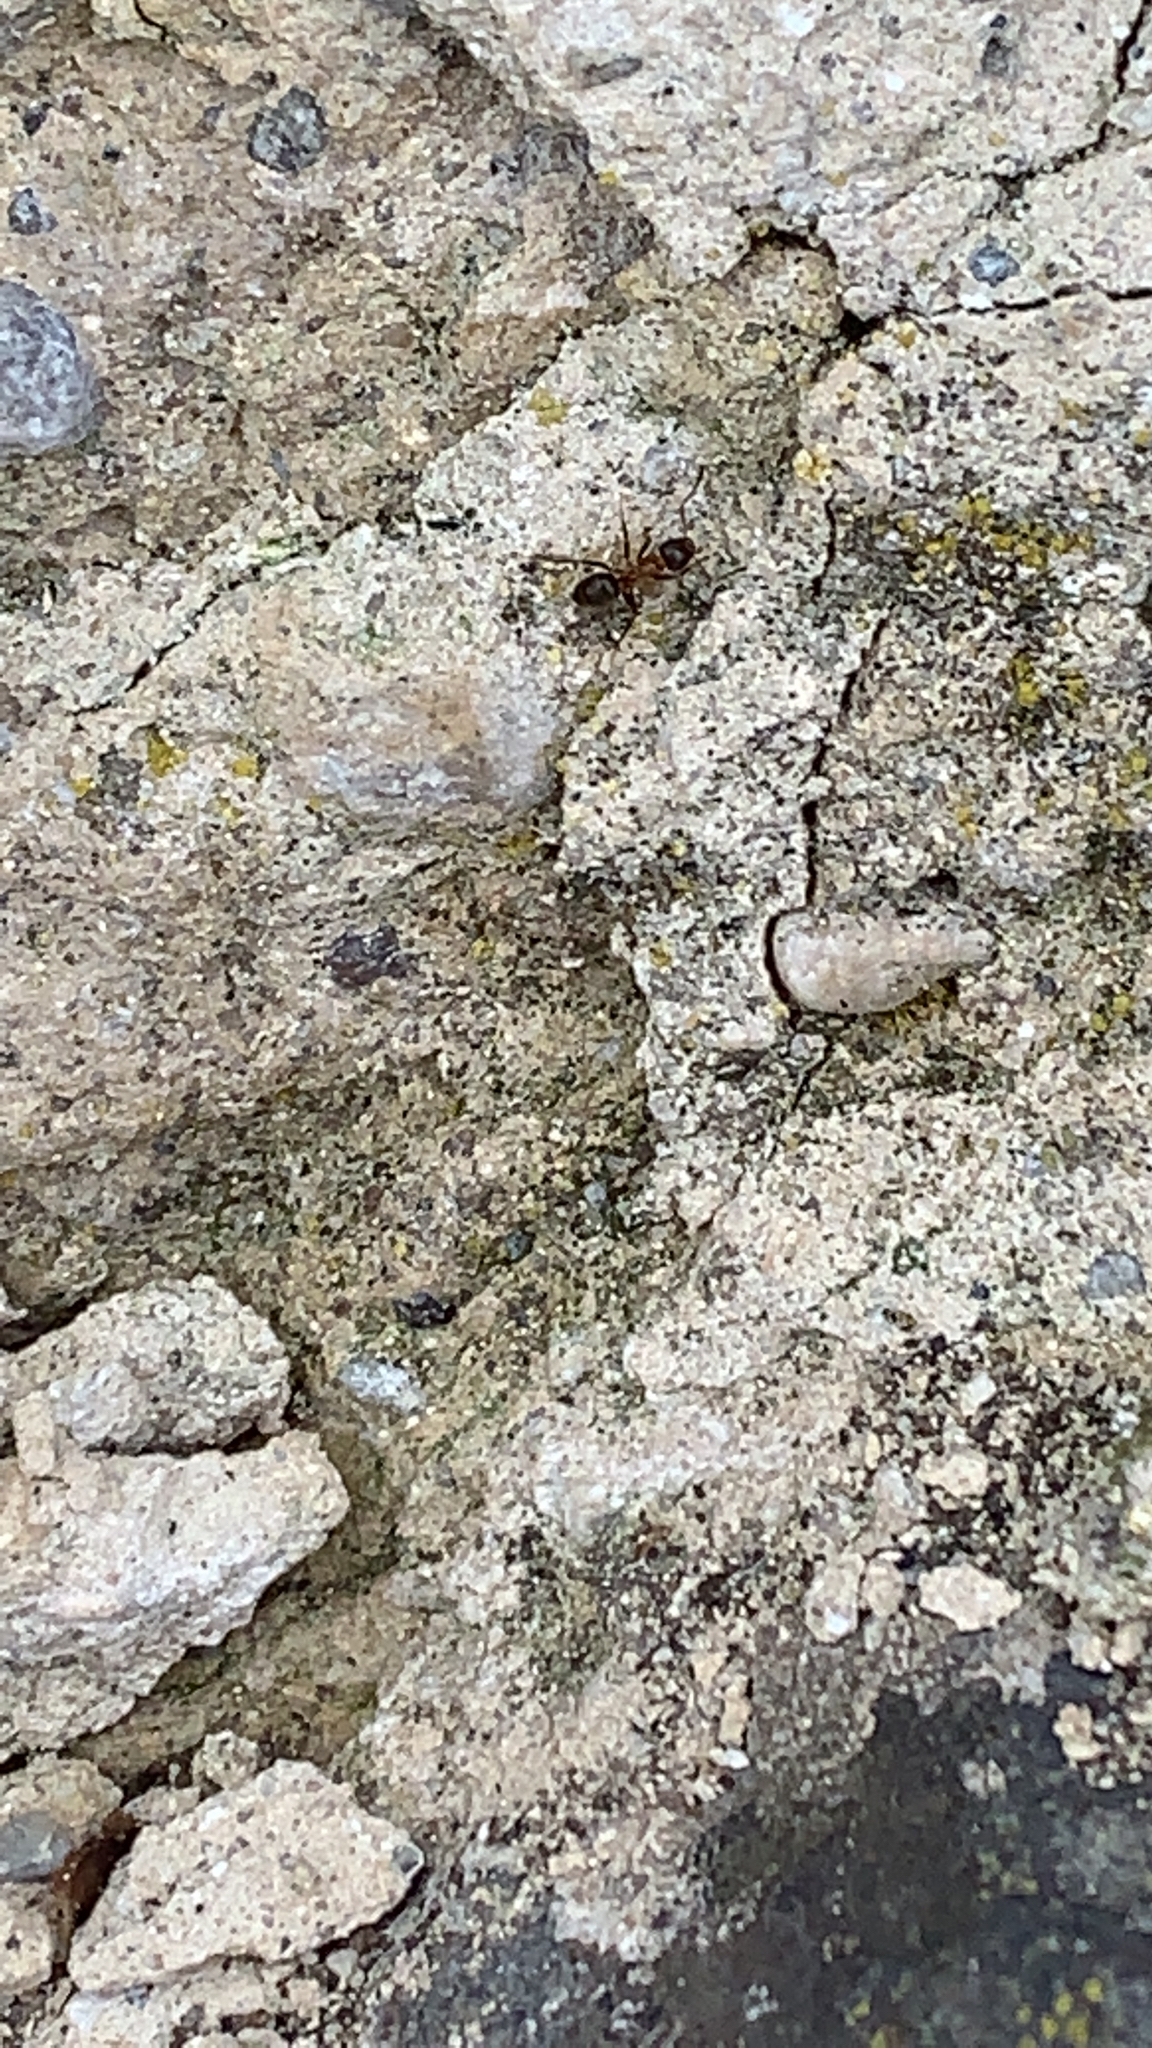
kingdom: Animalia
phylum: Arthropoda
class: Insecta
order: Hymenoptera
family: Formicidae
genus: Lasius
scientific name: Lasius emarginatus
